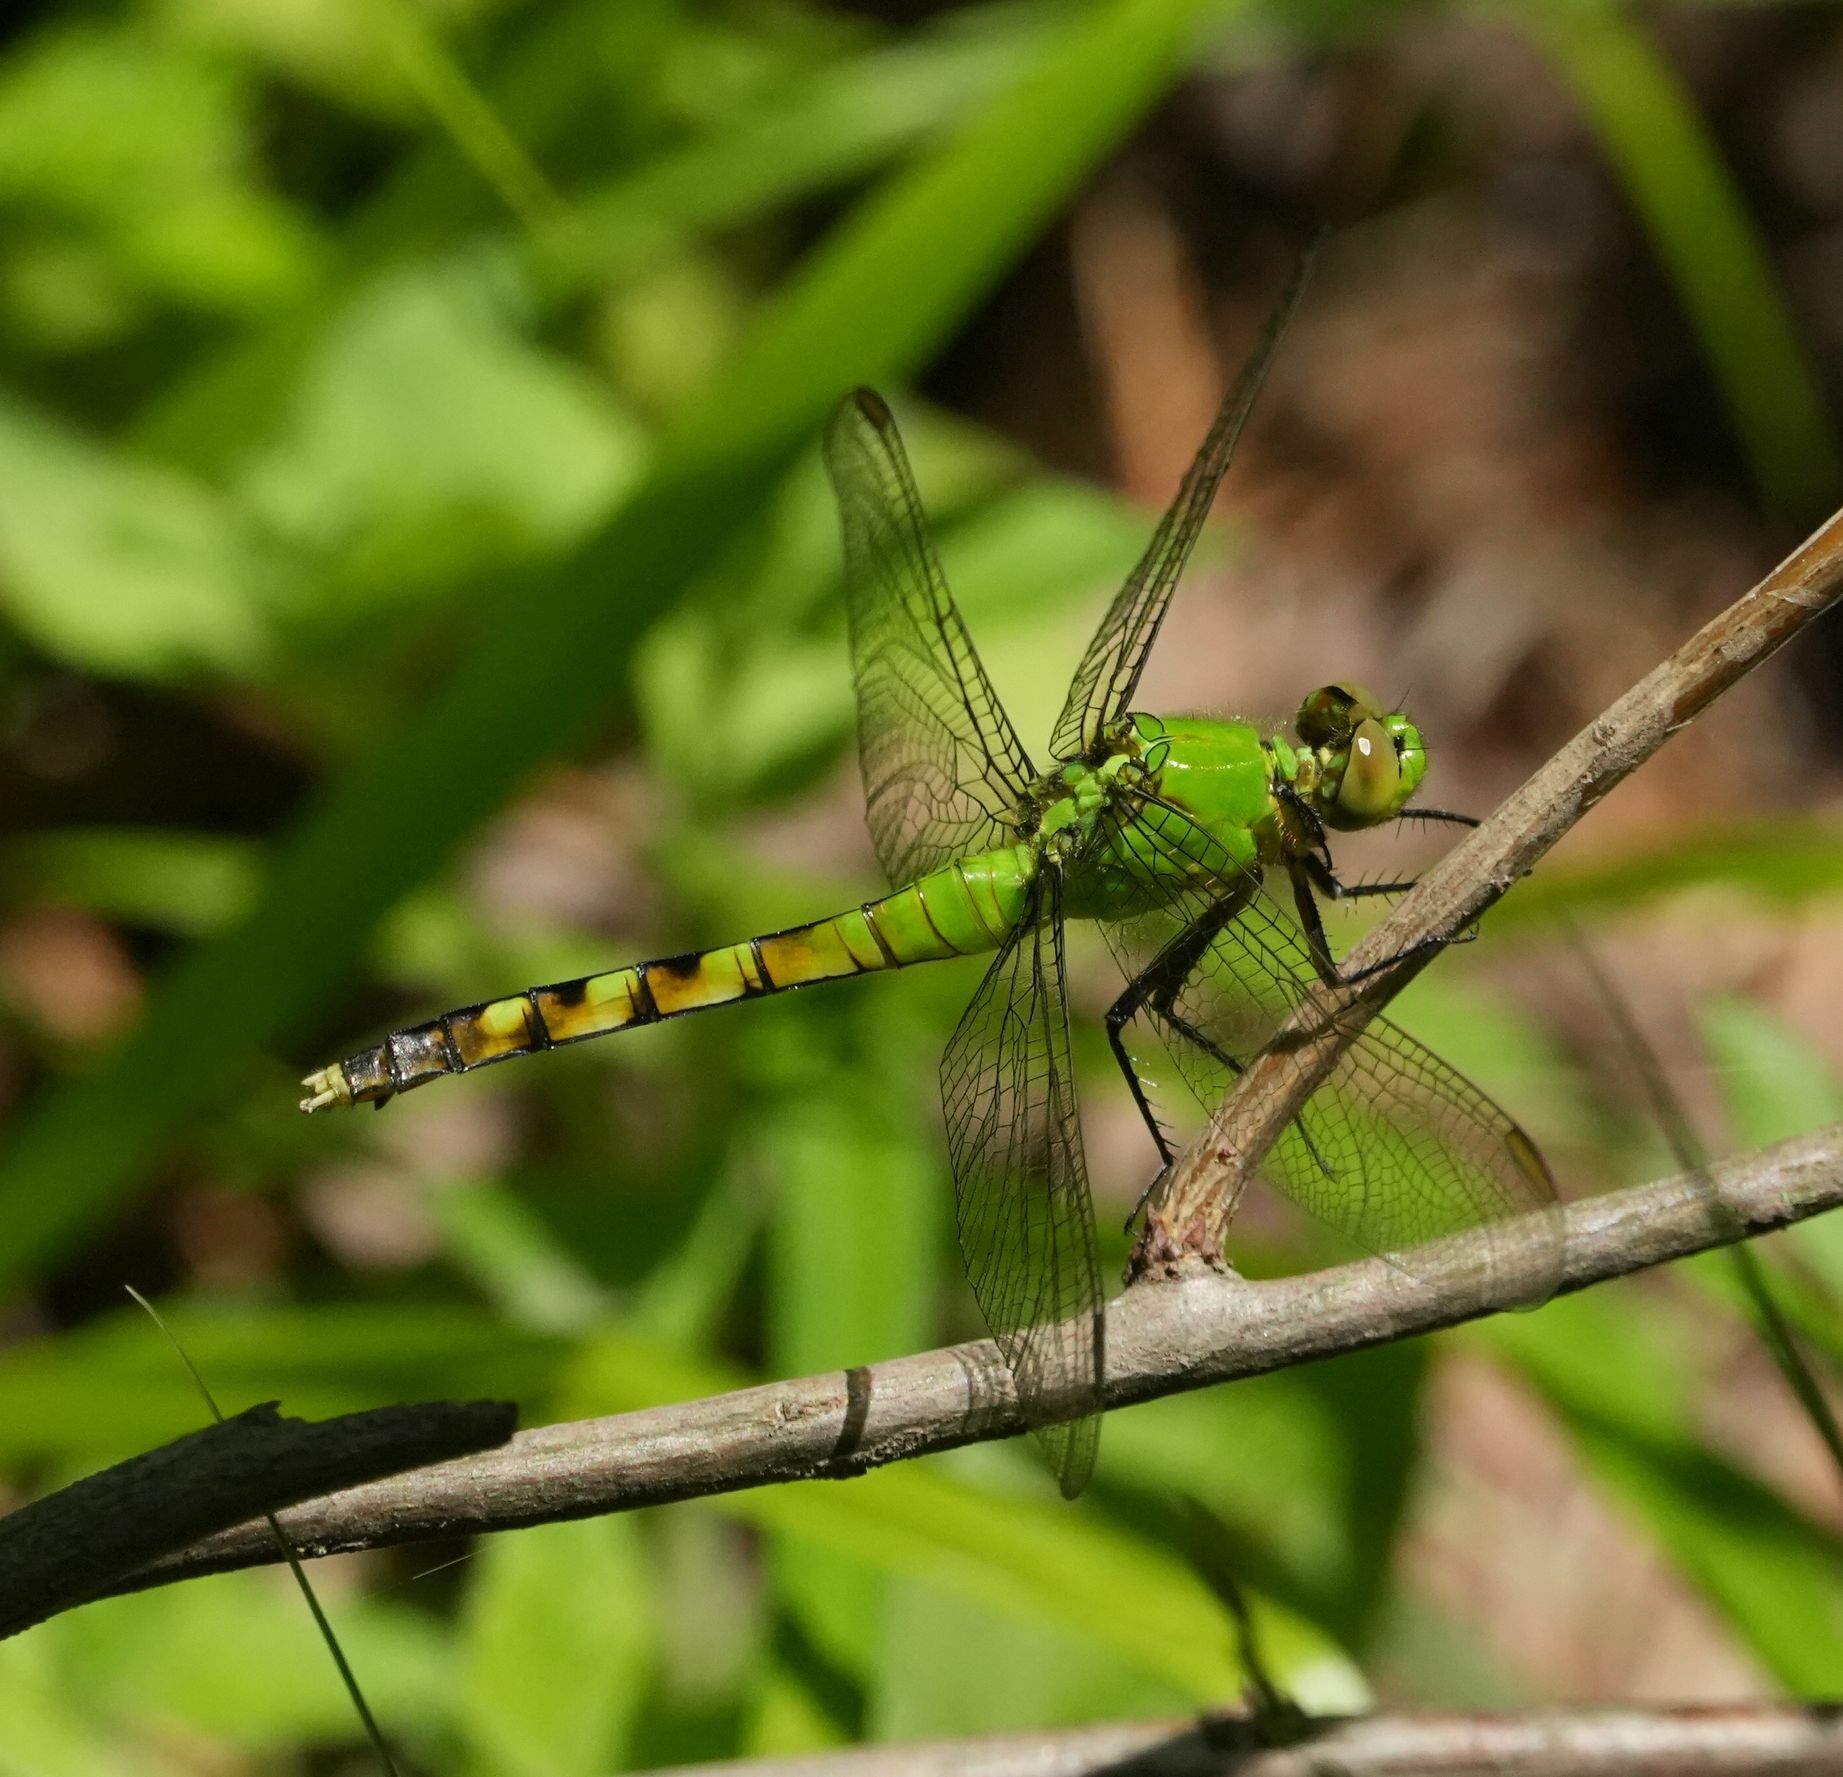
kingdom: Animalia
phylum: Arthropoda
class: Insecta
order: Odonata
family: Libellulidae
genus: Erythemis
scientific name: Erythemis simplicicollis
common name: Eastern pondhawk
